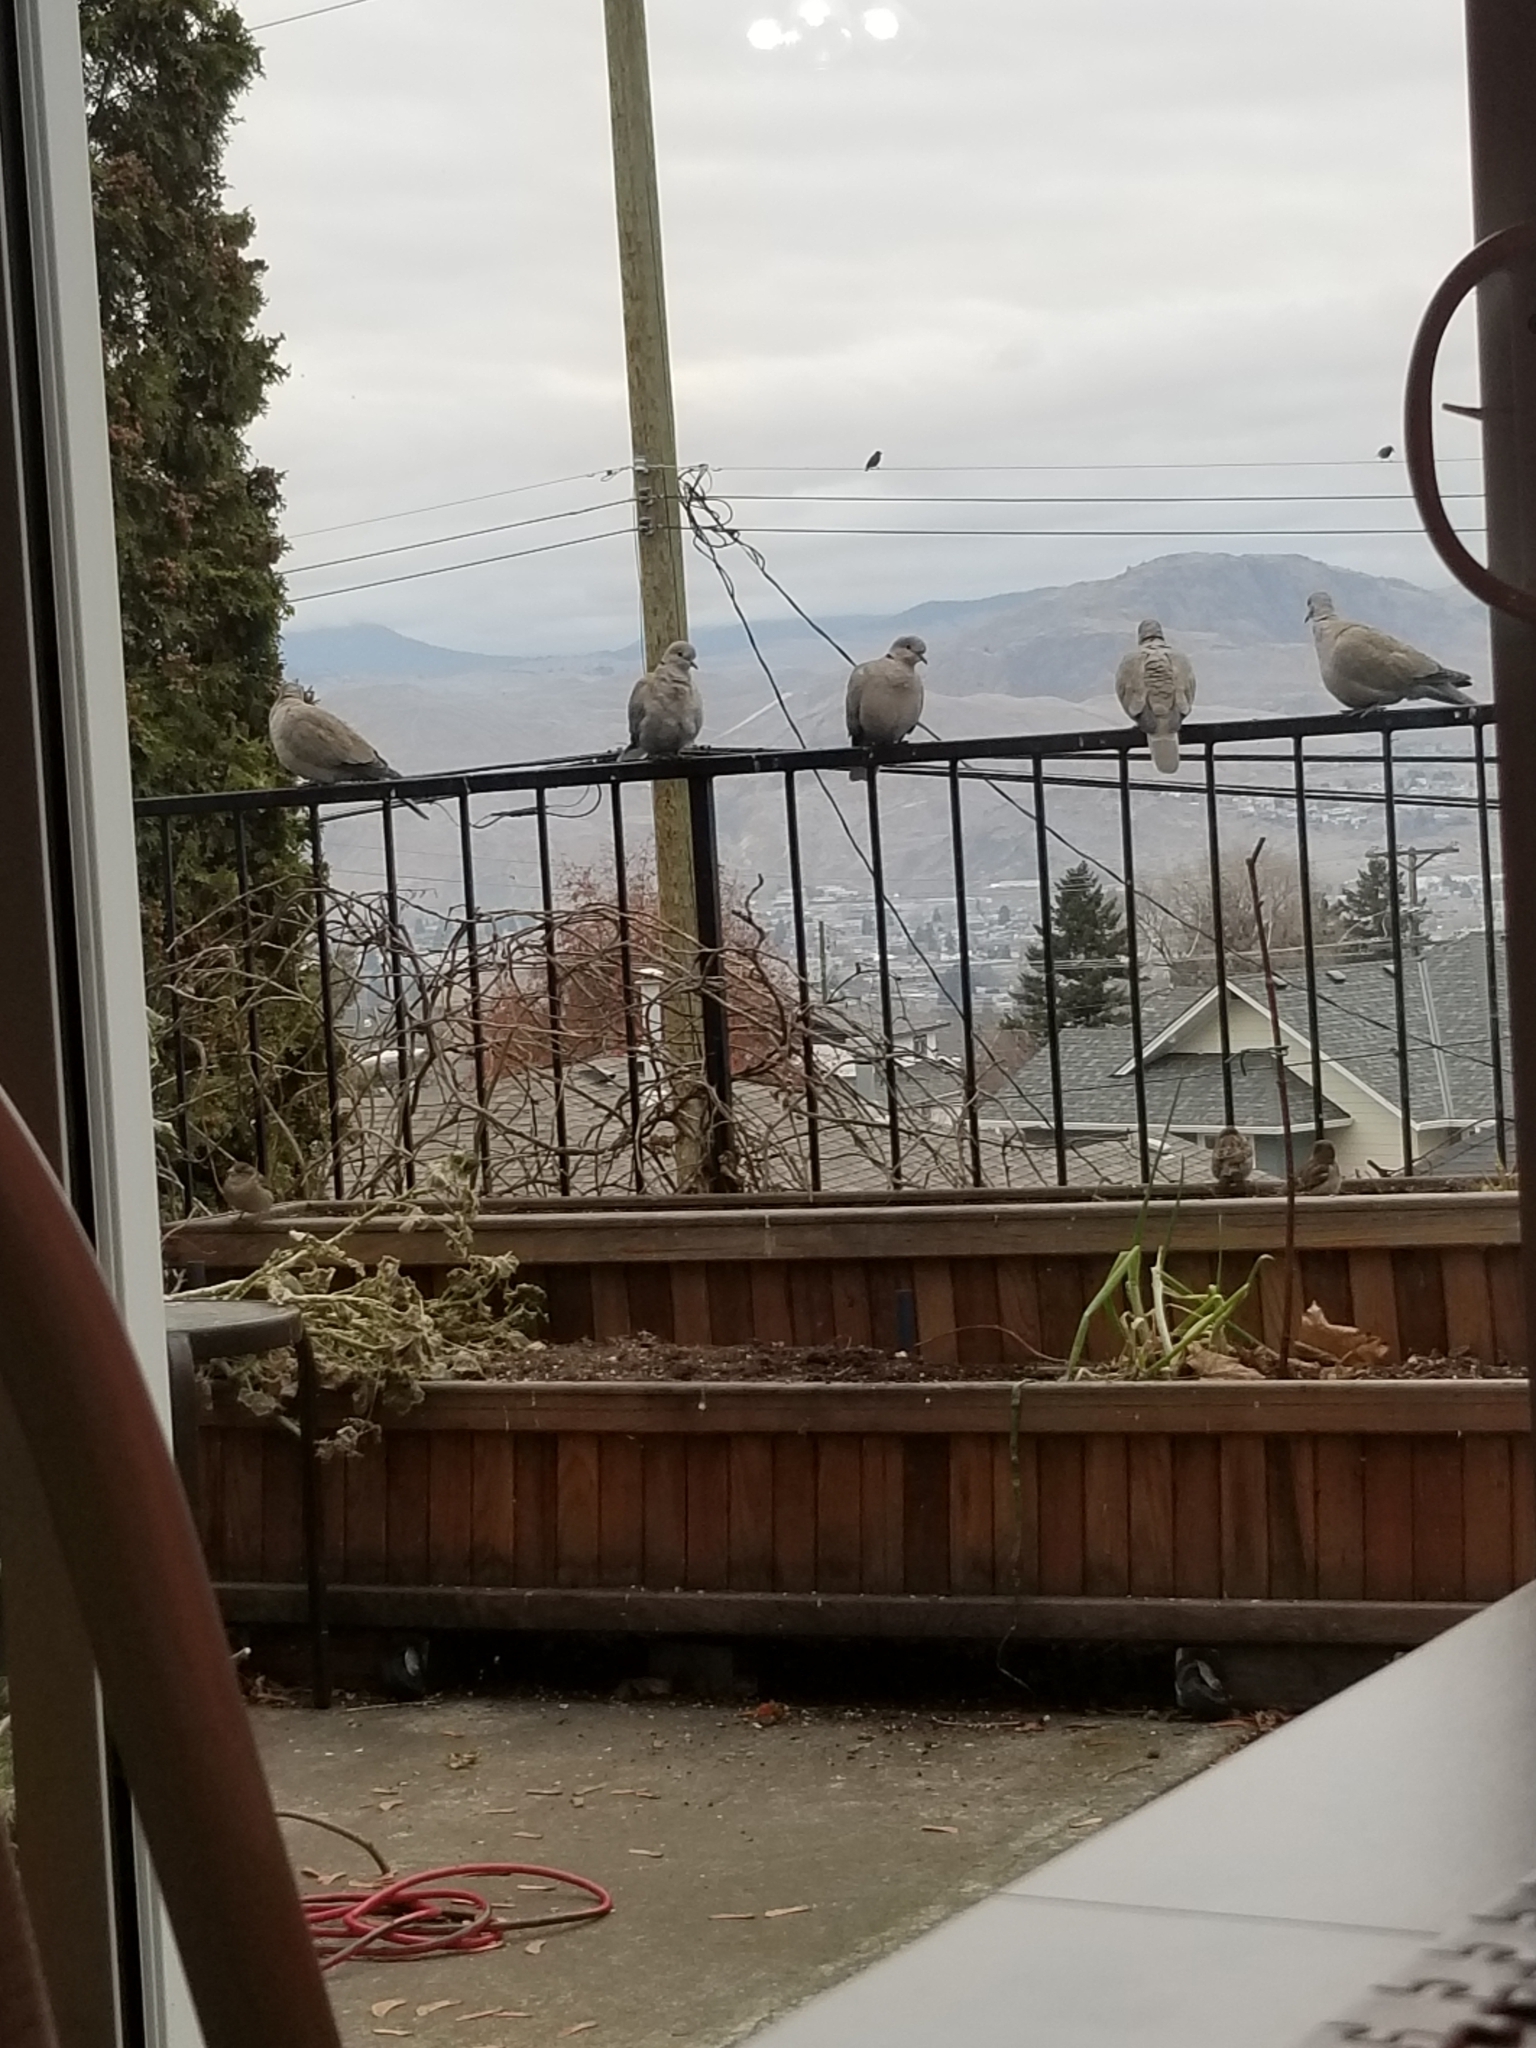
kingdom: Animalia
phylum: Chordata
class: Aves
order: Columbiformes
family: Columbidae
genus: Streptopelia
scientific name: Streptopelia decaocto
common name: Eurasian collared dove
